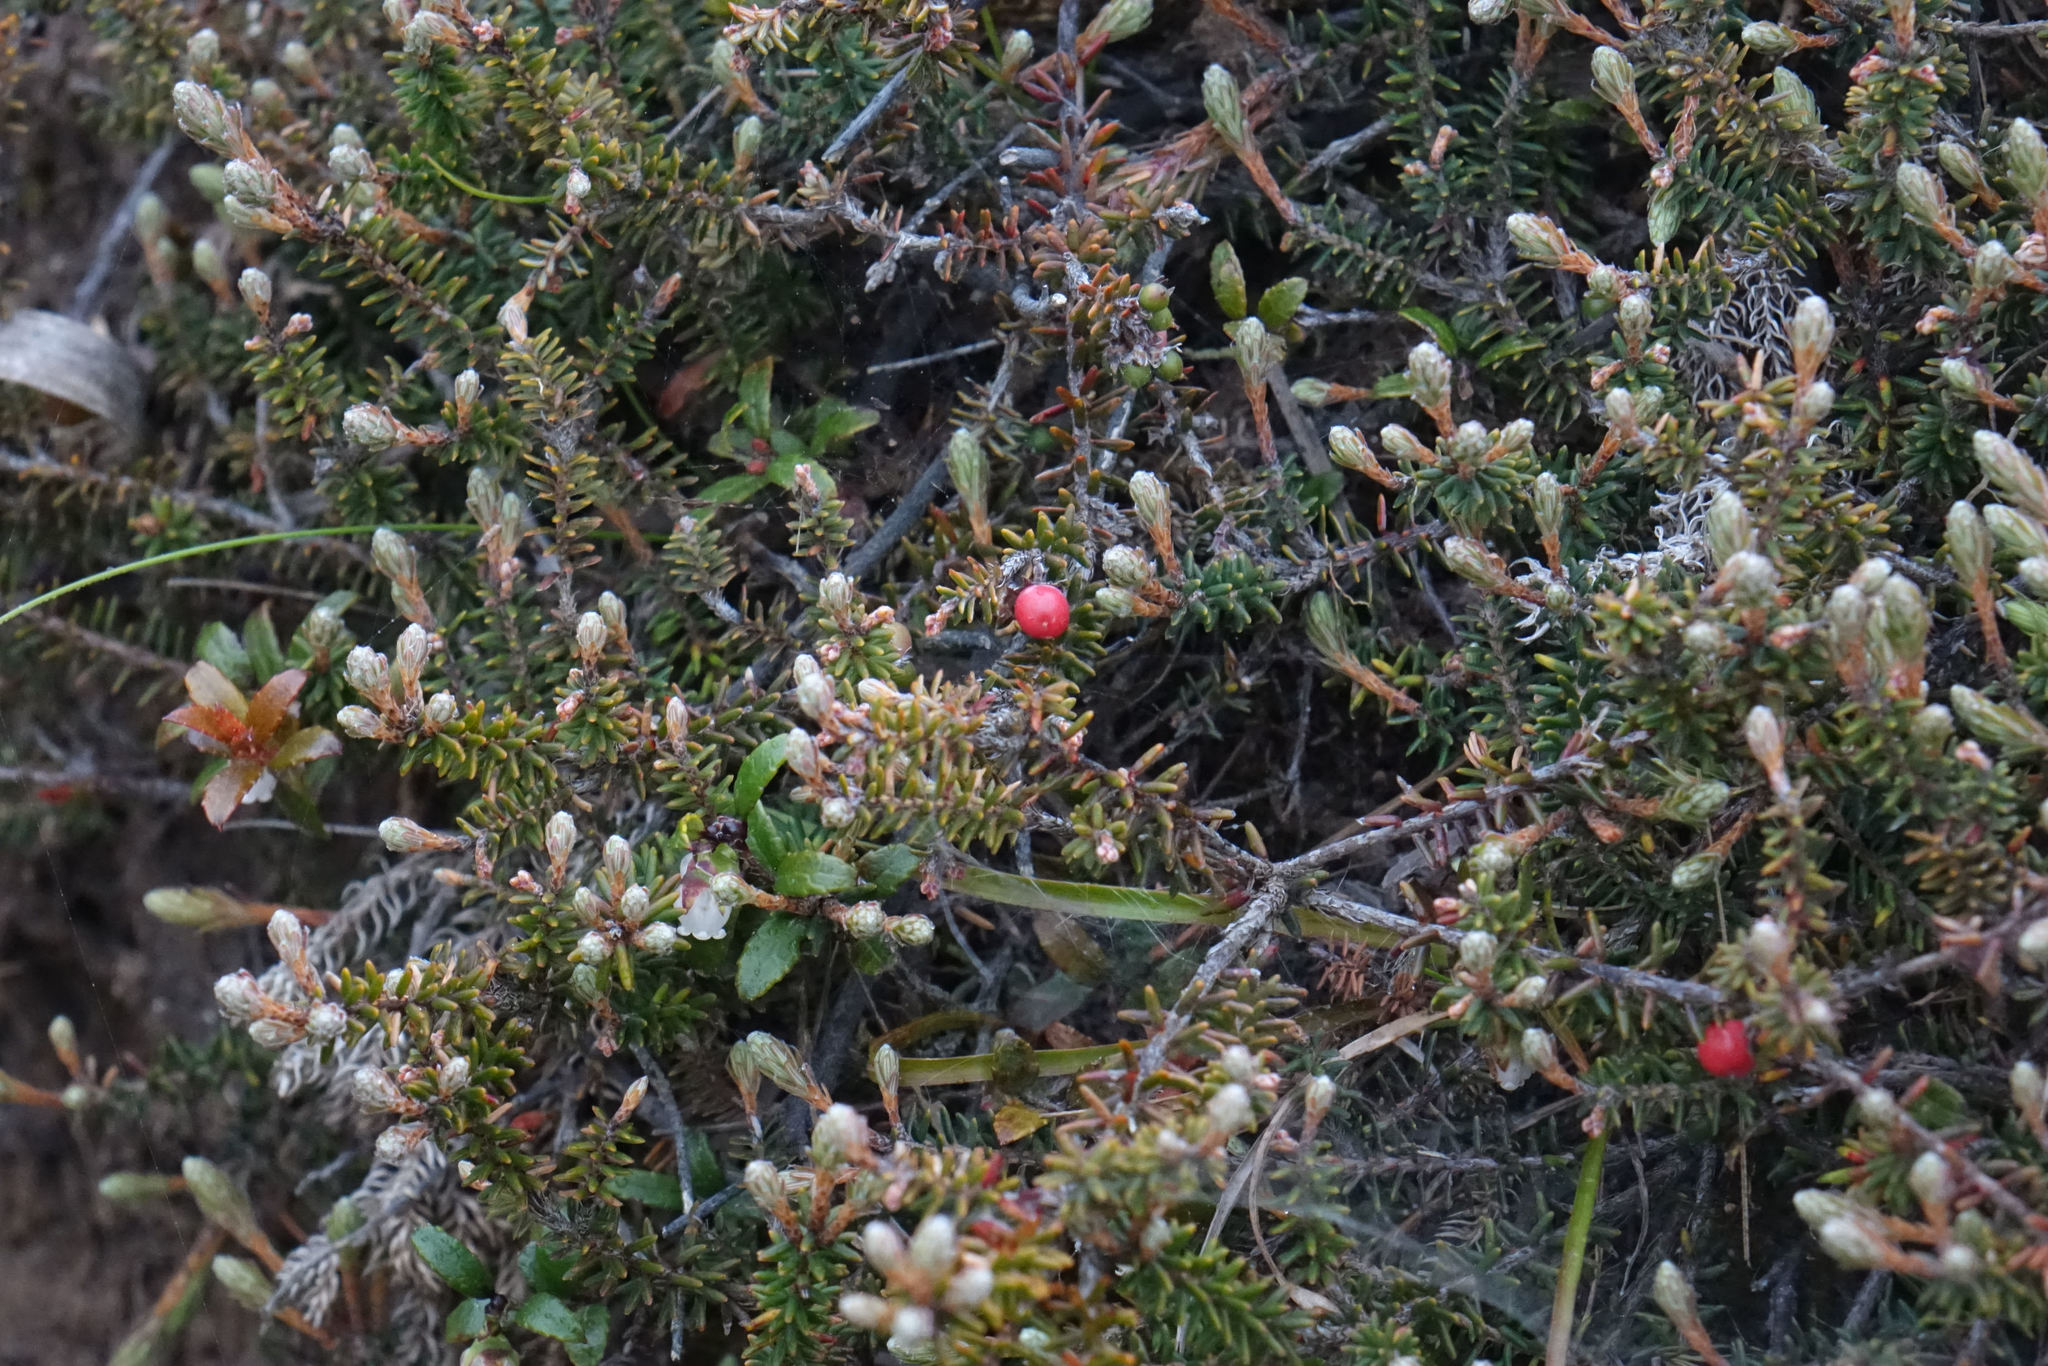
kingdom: Plantae
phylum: Tracheophyta
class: Magnoliopsida
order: Ericales
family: Ericaceae
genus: Androstoma
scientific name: Androstoma empetrifolia
